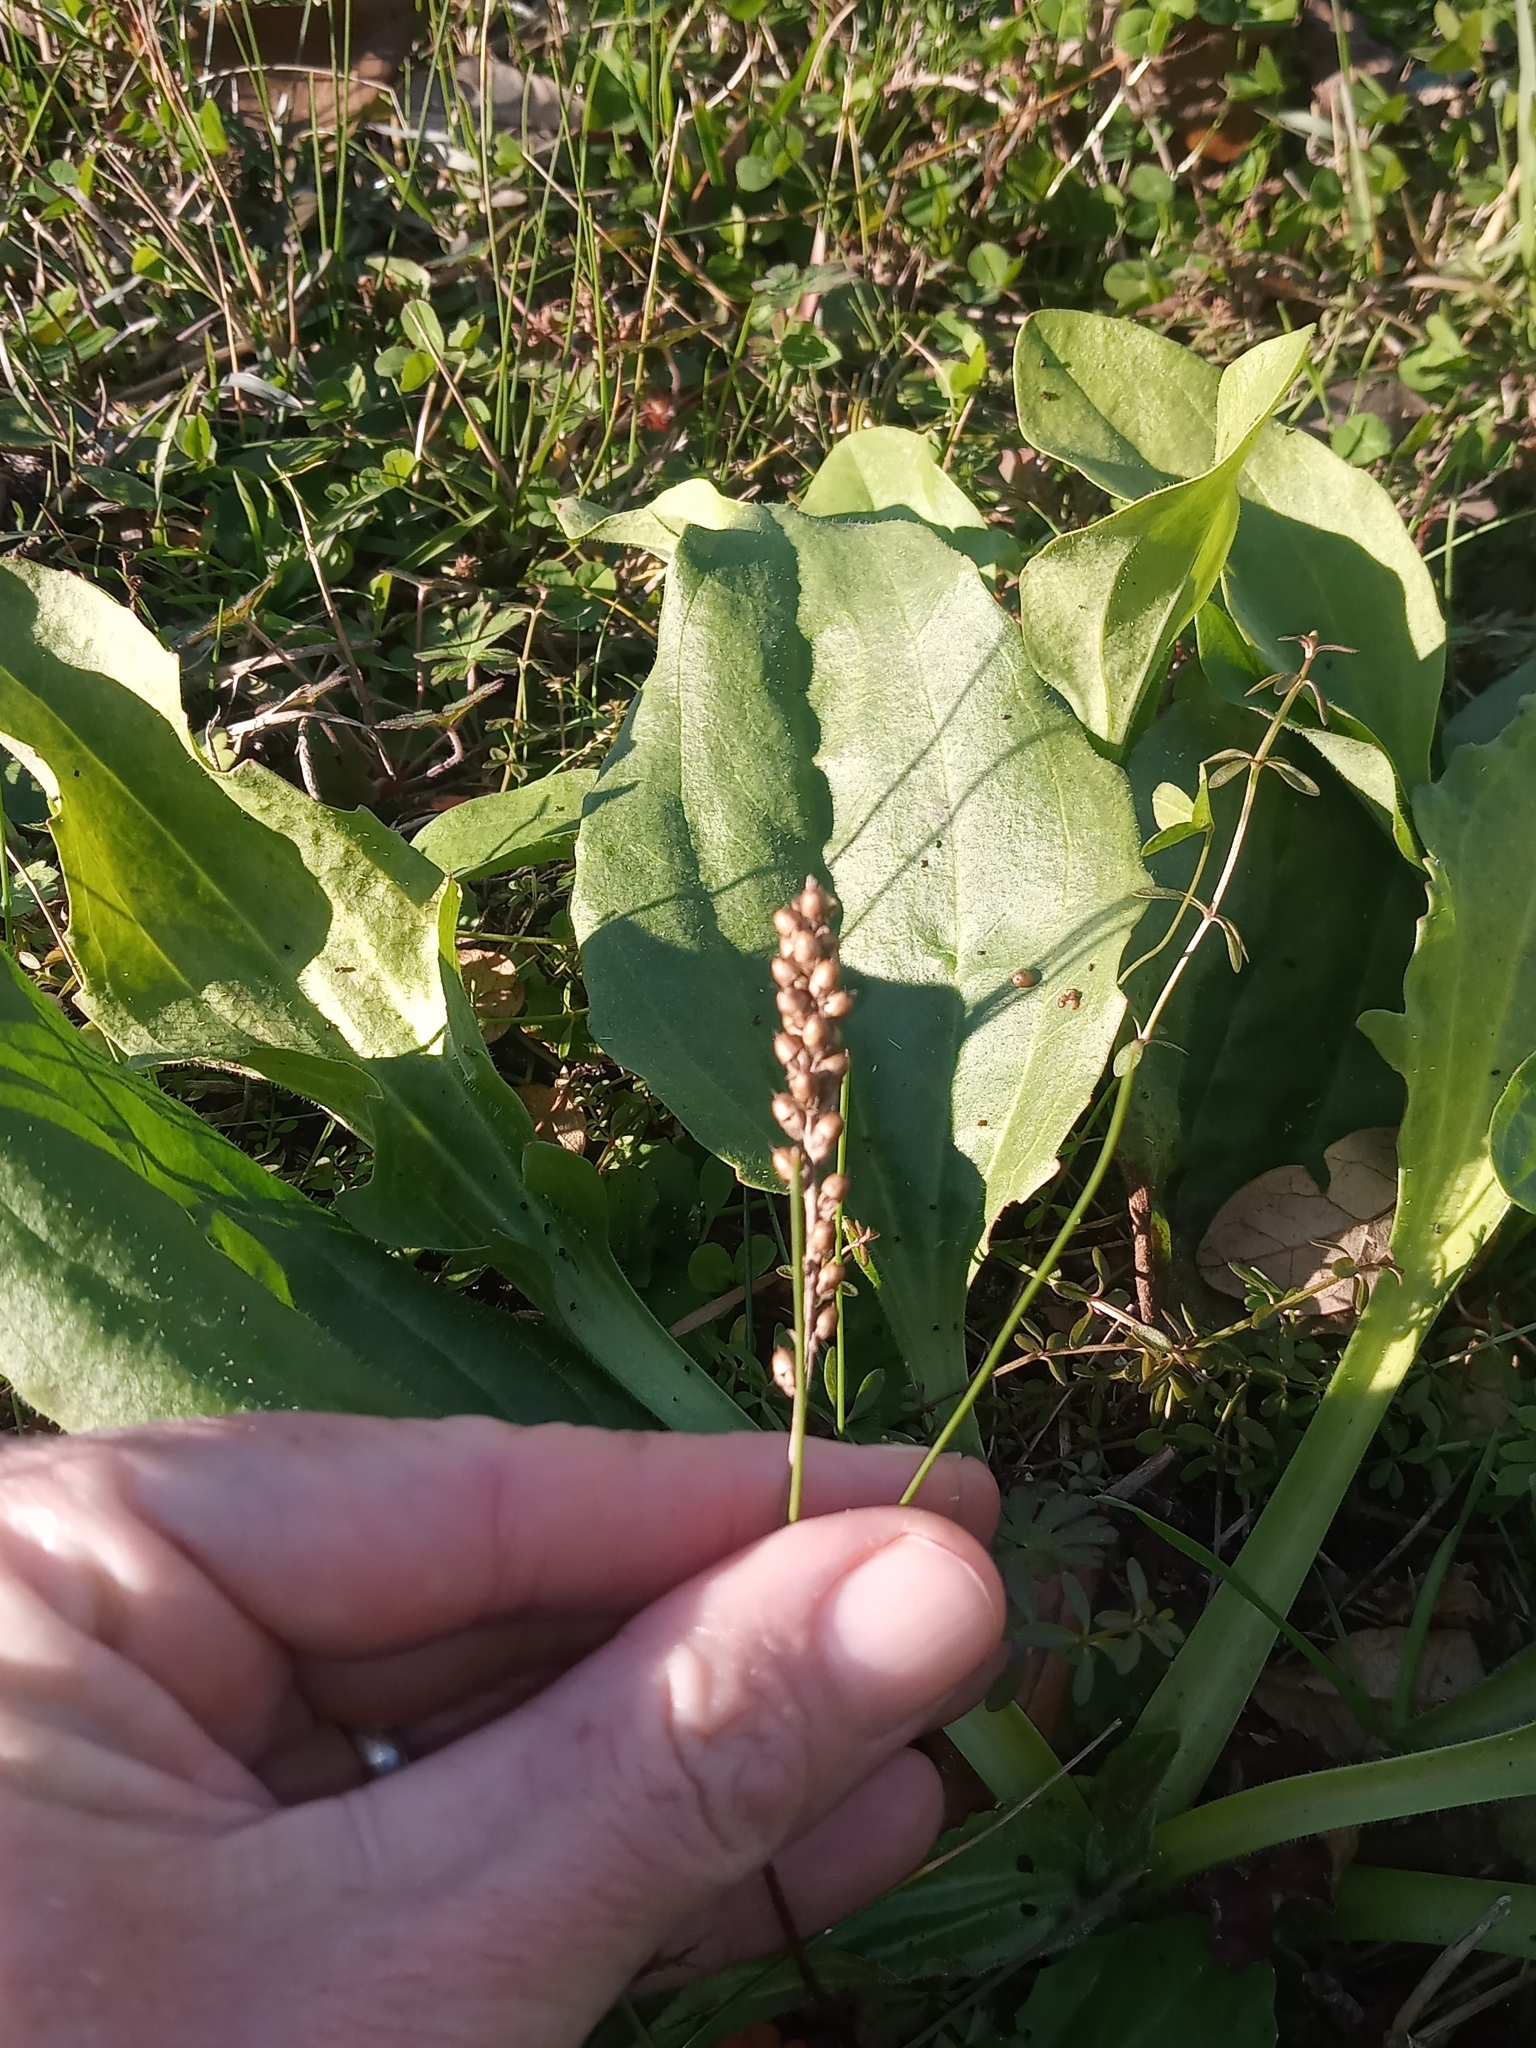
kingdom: Plantae
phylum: Tracheophyta
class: Magnoliopsida
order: Lamiales
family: Plantaginaceae
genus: Plantago
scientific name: Plantago major
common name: Common plantain
